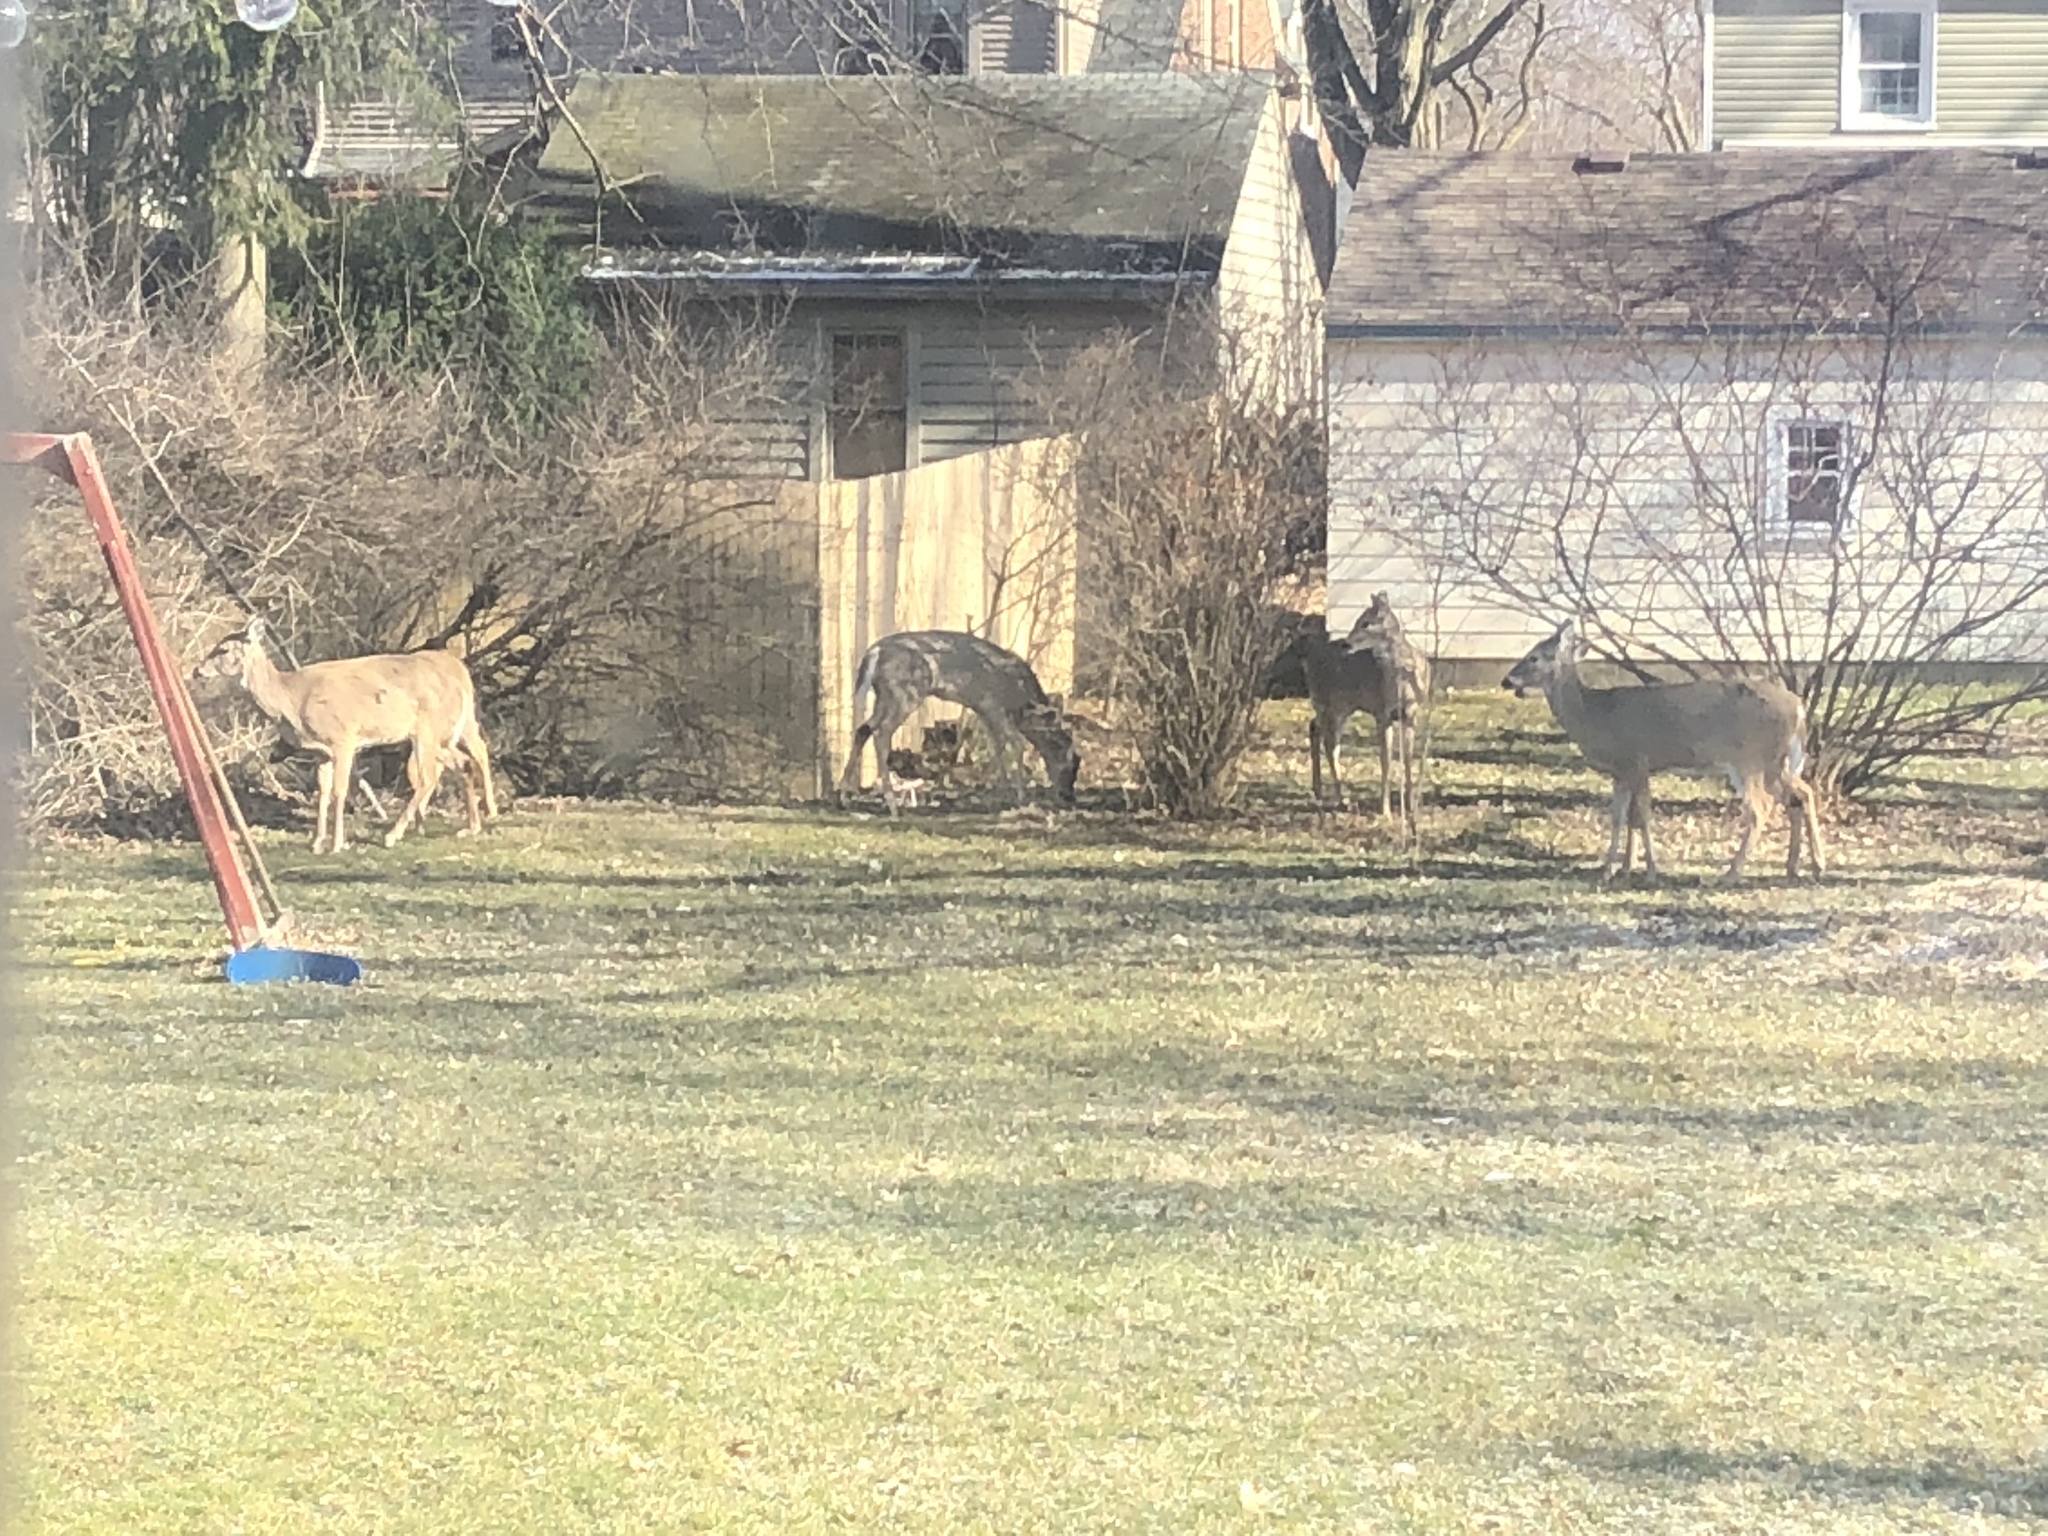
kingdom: Animalia
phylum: Chordata
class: Mammalia
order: Artiodactyla
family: Cervidae
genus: Odocoileus
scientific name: Odocoileus virginianus
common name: White-tailed deer
